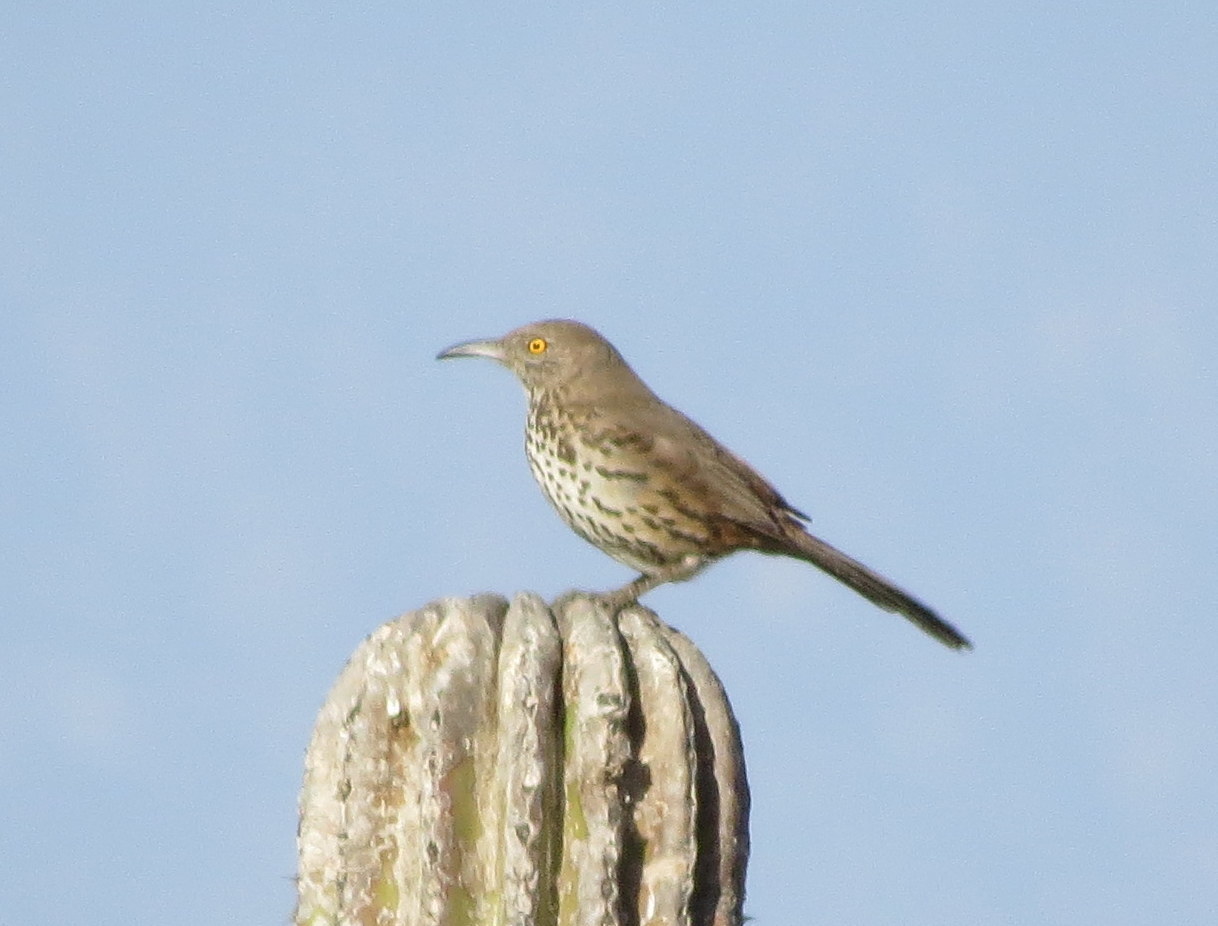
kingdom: Animalia
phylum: Chordata
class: Aves
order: Passeriformes
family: Mimidae
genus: Toxostoma
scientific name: Toxostoma cinereum
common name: Gray thrasher
